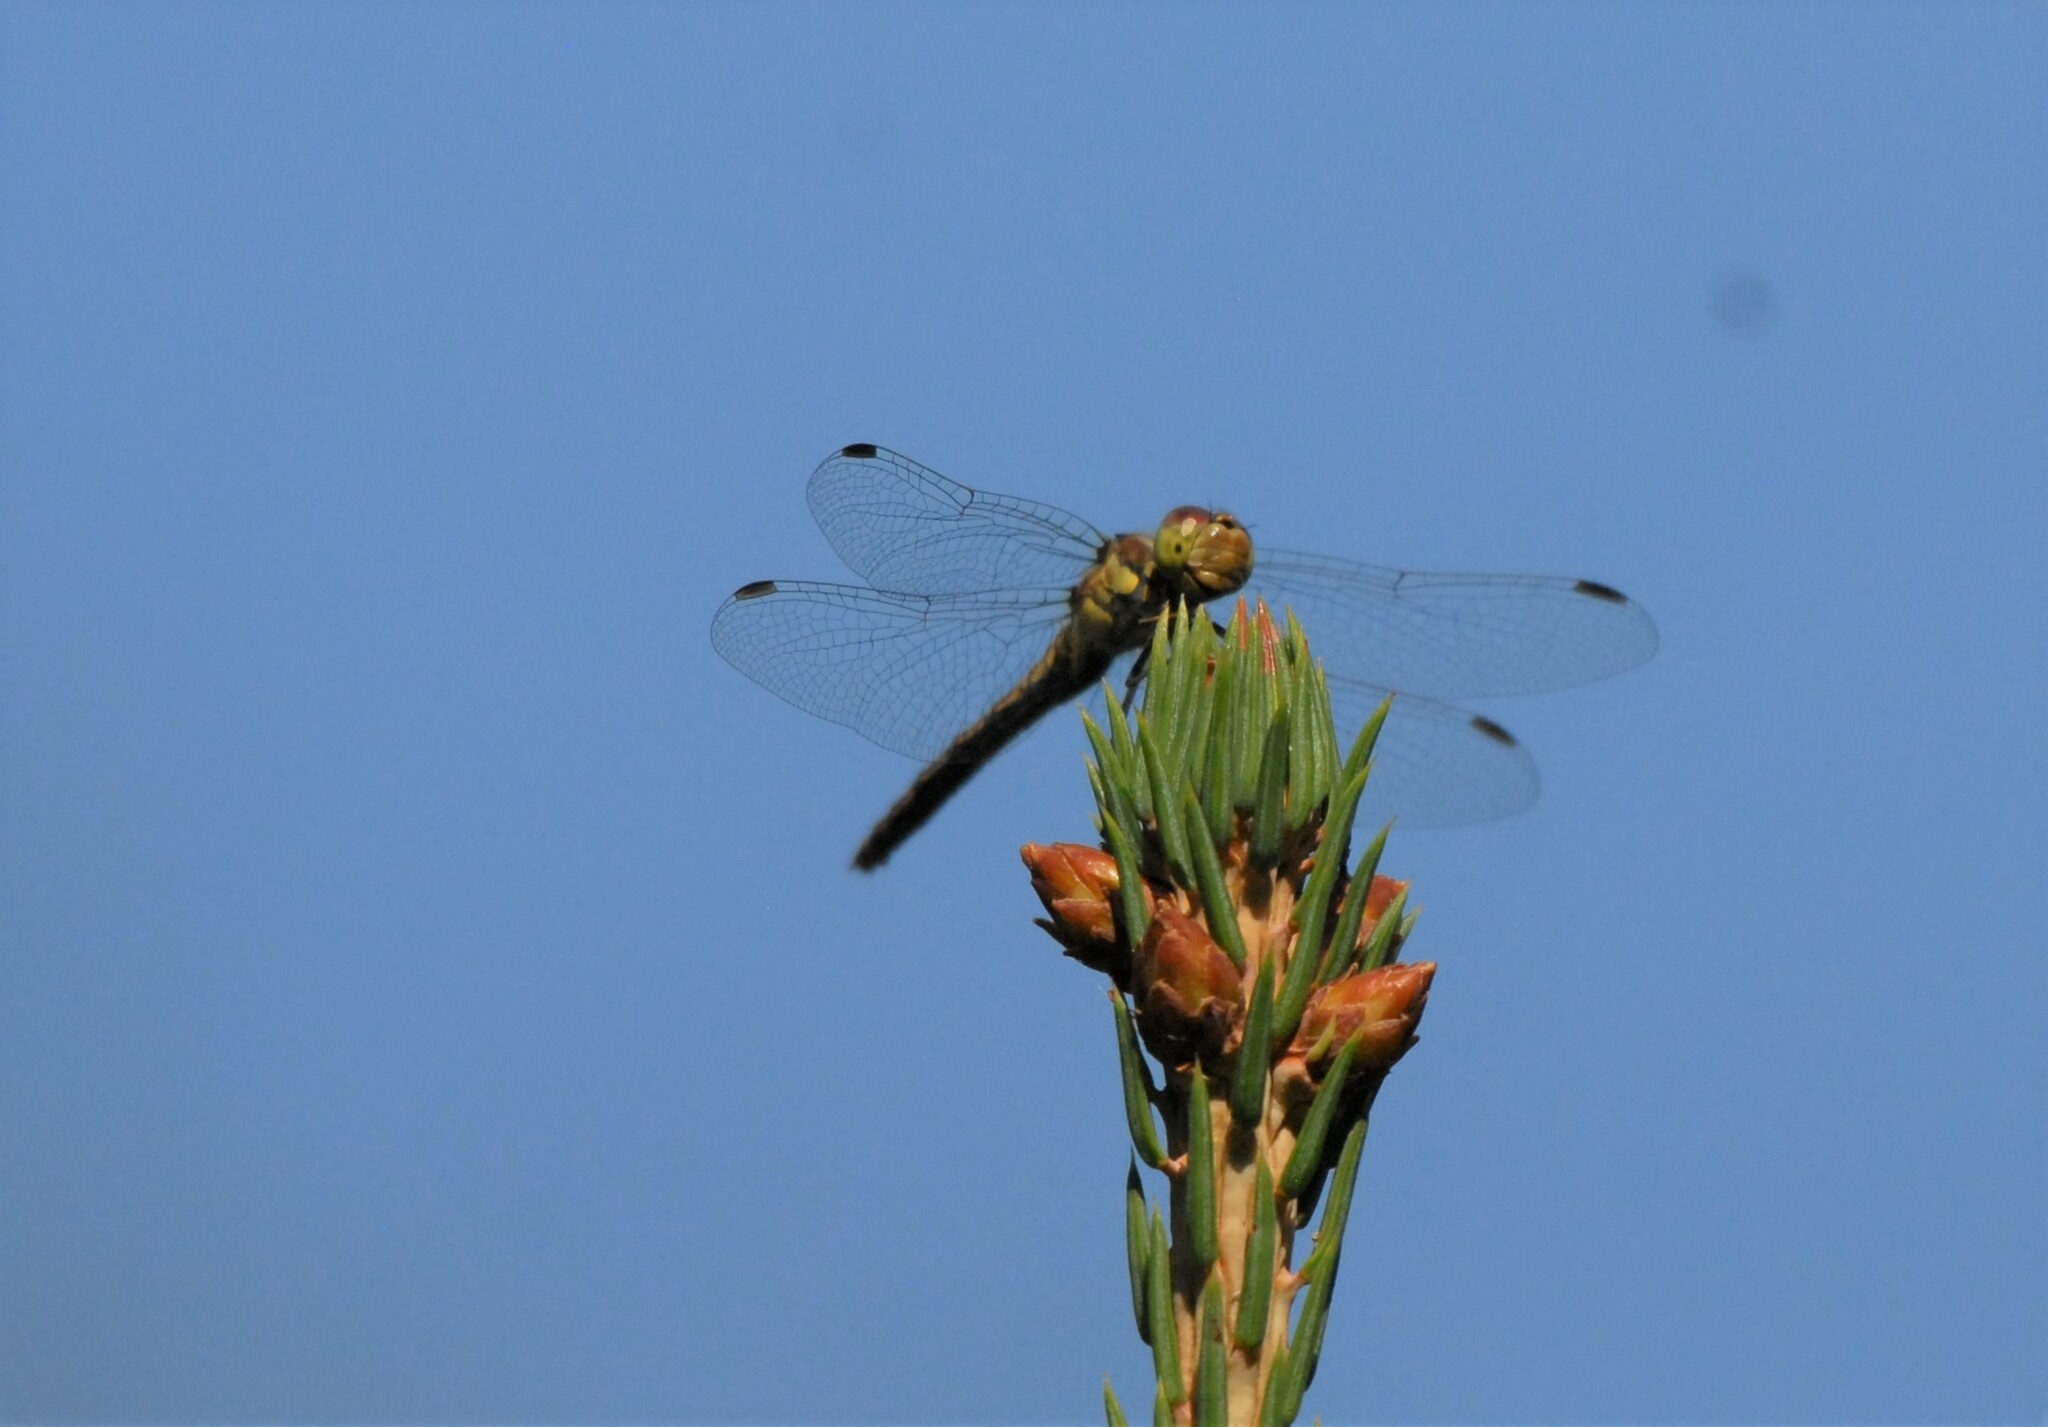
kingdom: Animalia
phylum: Arthropoda
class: Insecta
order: Odonata
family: Libellulidae
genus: Sympetrum
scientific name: Sympetrum vulgatum
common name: Vagrant darter
